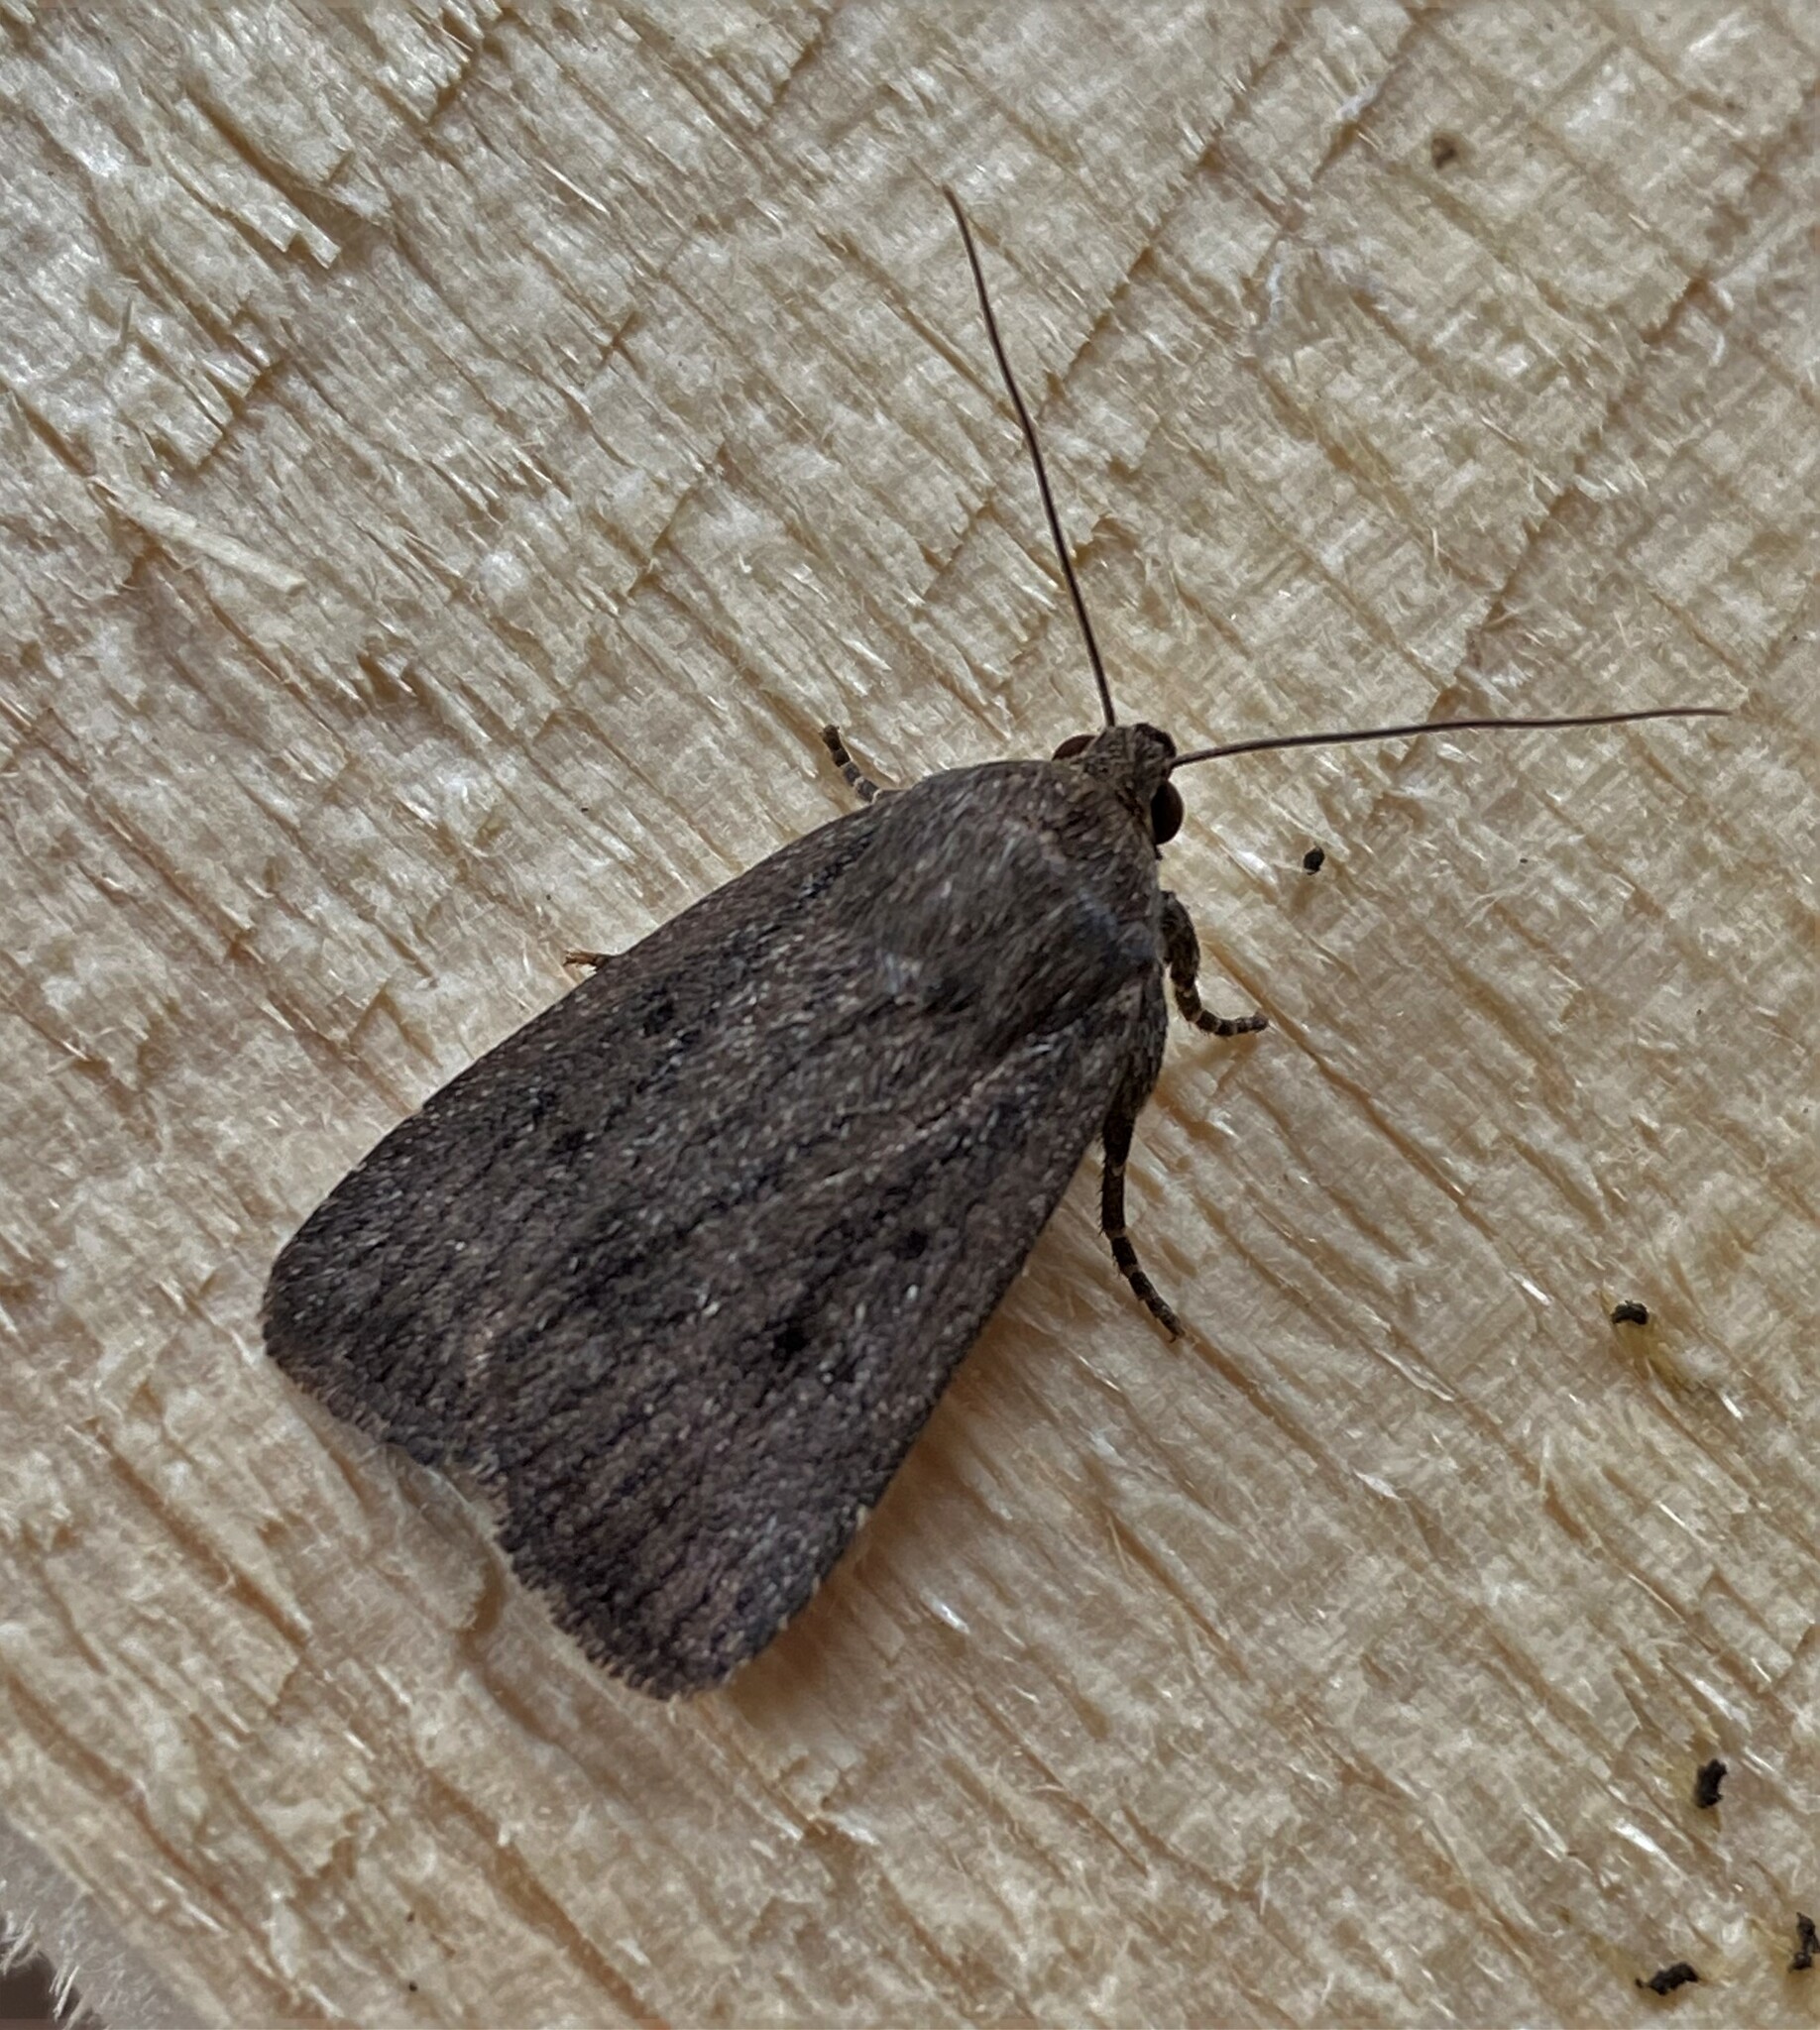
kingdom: Animalia
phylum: Arthropoda
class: Insecta
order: Lepidoptera
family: Noctuidae
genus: Amphipyra
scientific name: Amphipyra tragopoginis
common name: Mouse moth
